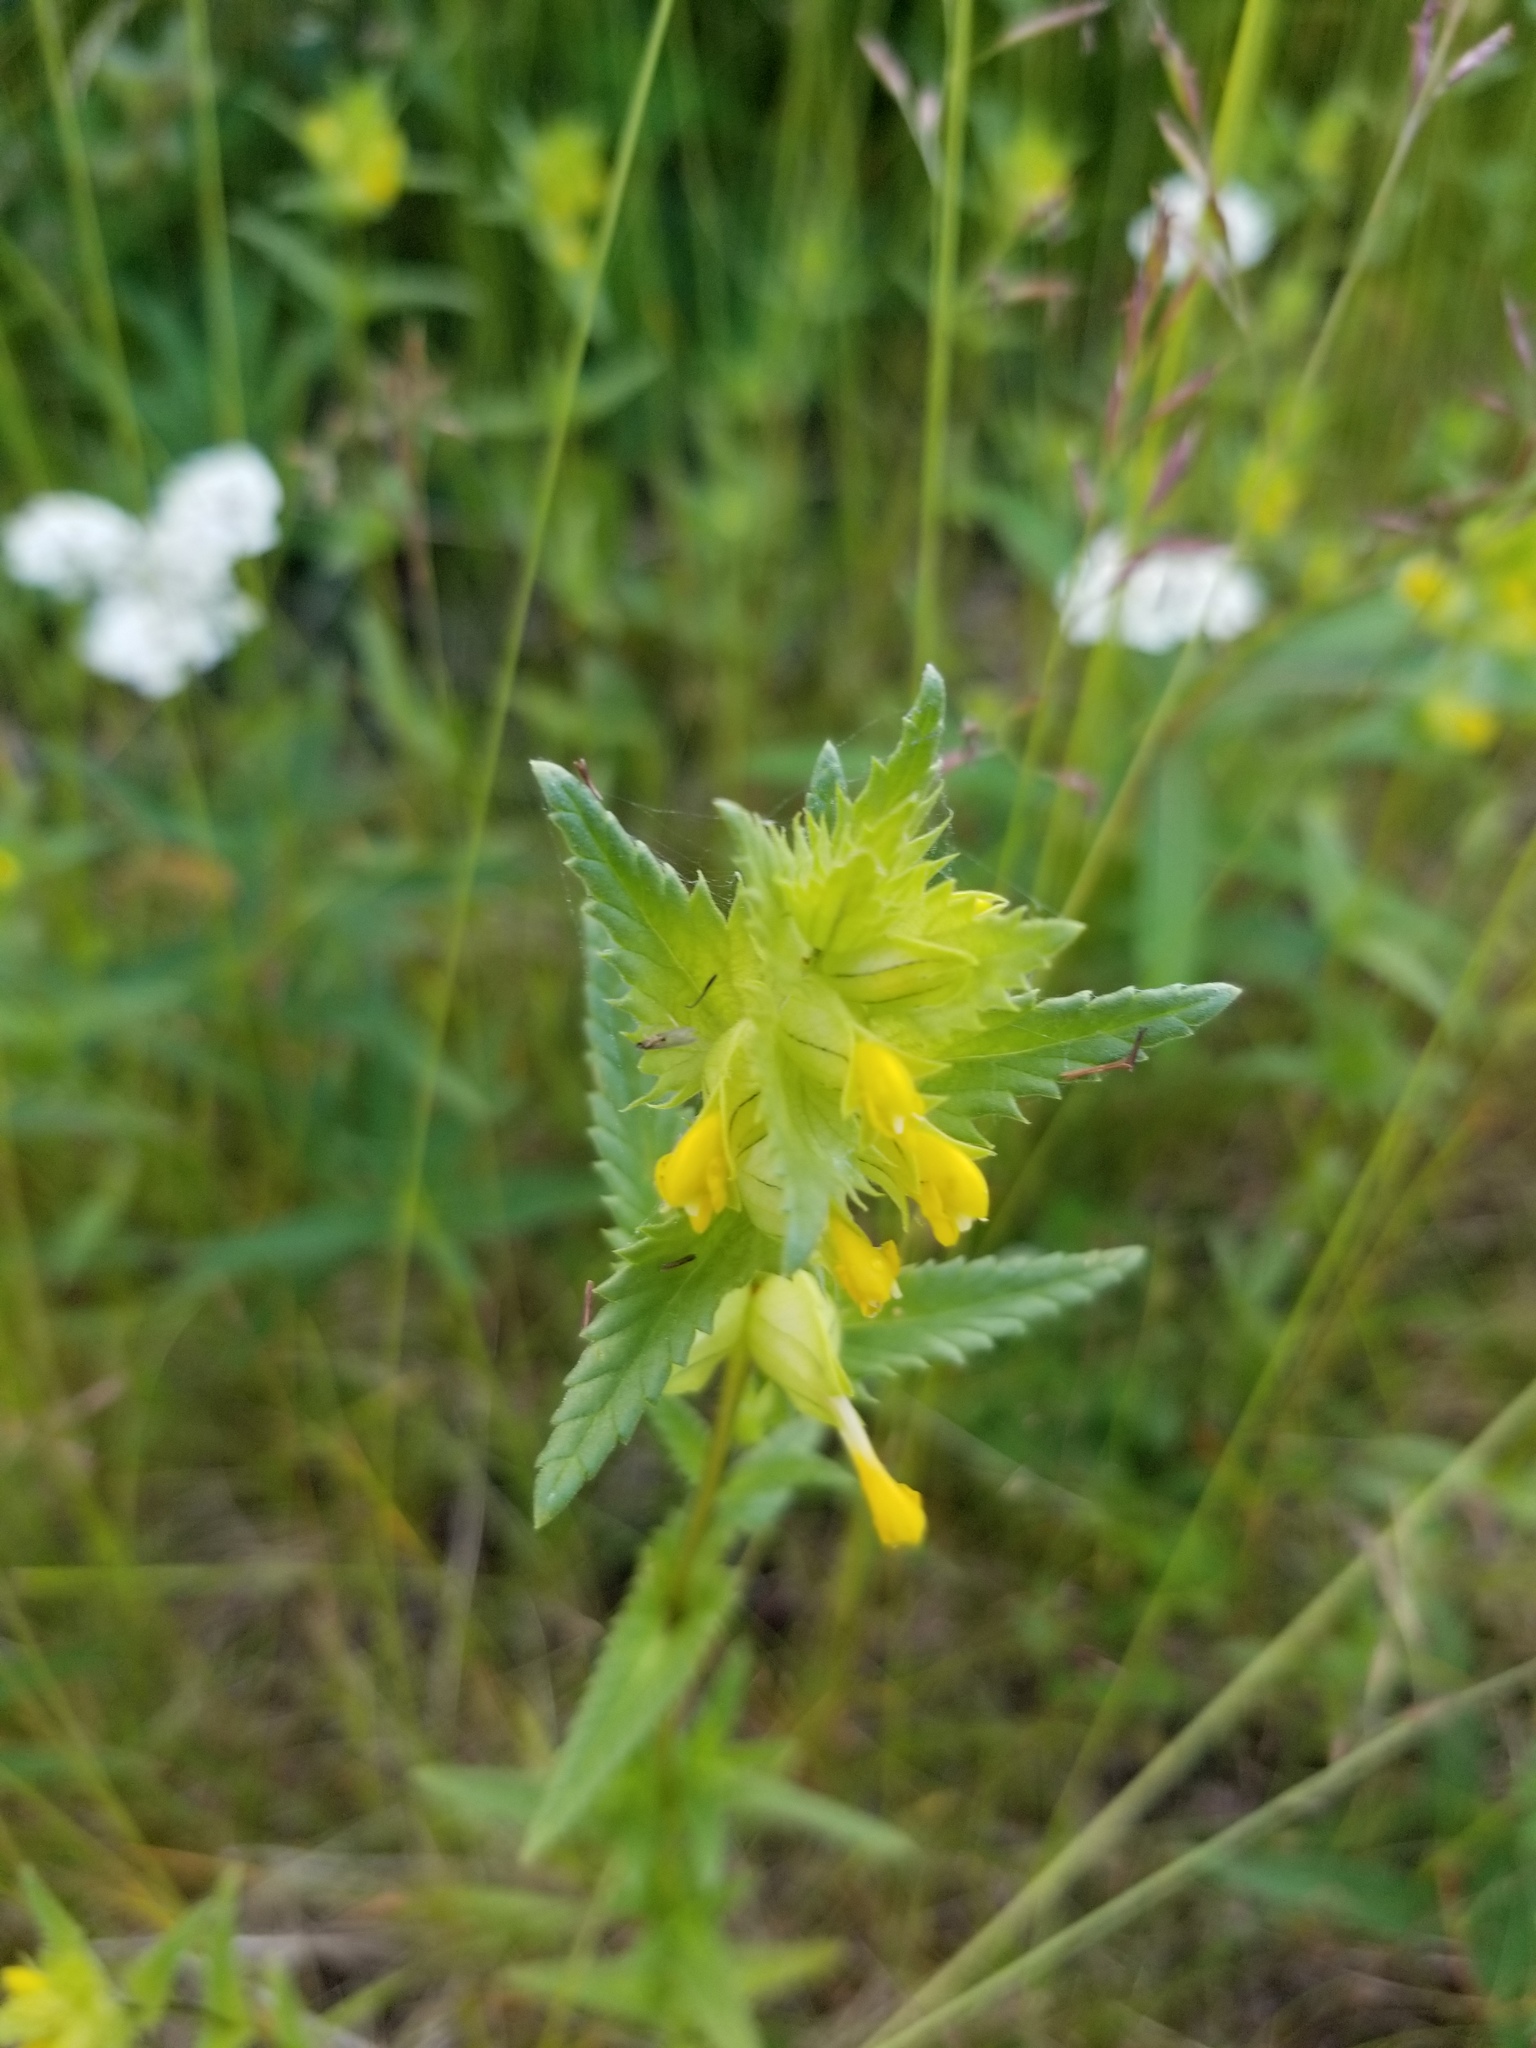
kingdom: Plantae
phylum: Tracheophyta
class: Magnoliopsida
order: Lamiales
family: Orobanchaceae
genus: Rhinanthus
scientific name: Rhinanthus groenlandicus
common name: Little yellow rattle
